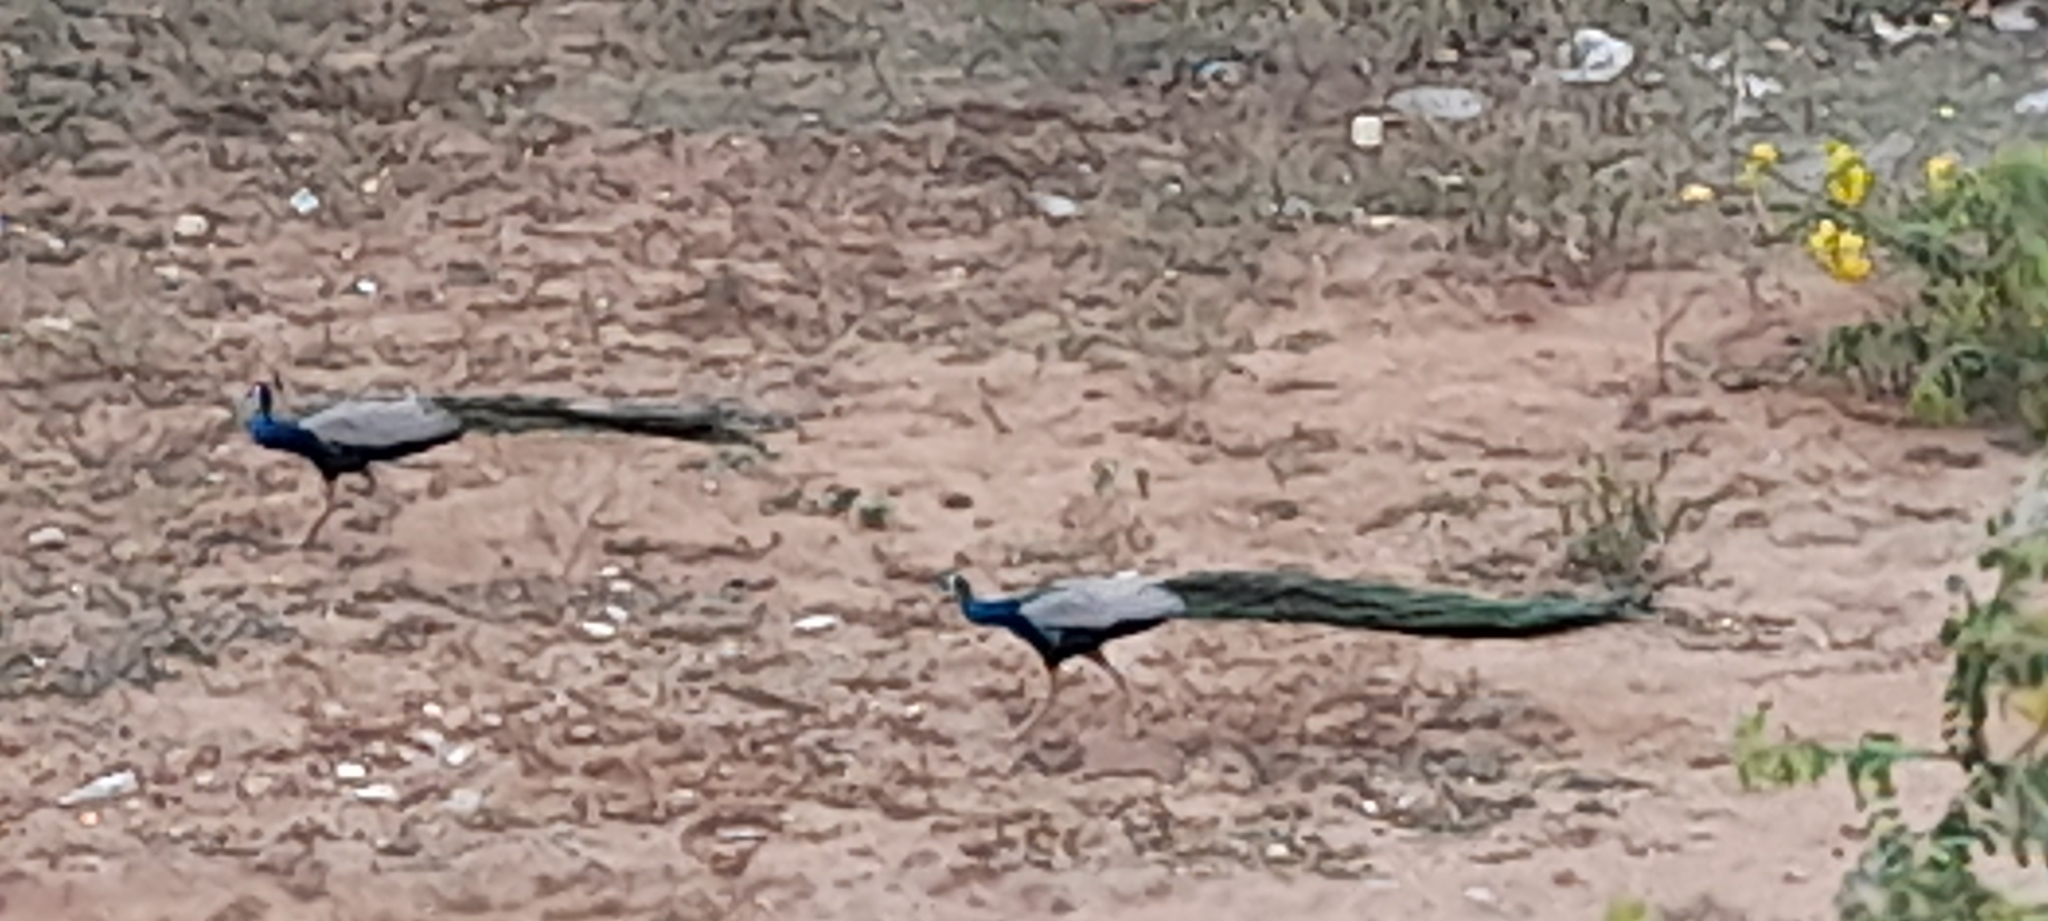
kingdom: Animalia
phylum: Chordata
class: Aves
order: Galliformes
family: Phasianidae
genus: Pavo
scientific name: Pavo cristatus
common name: Indian peafowl
